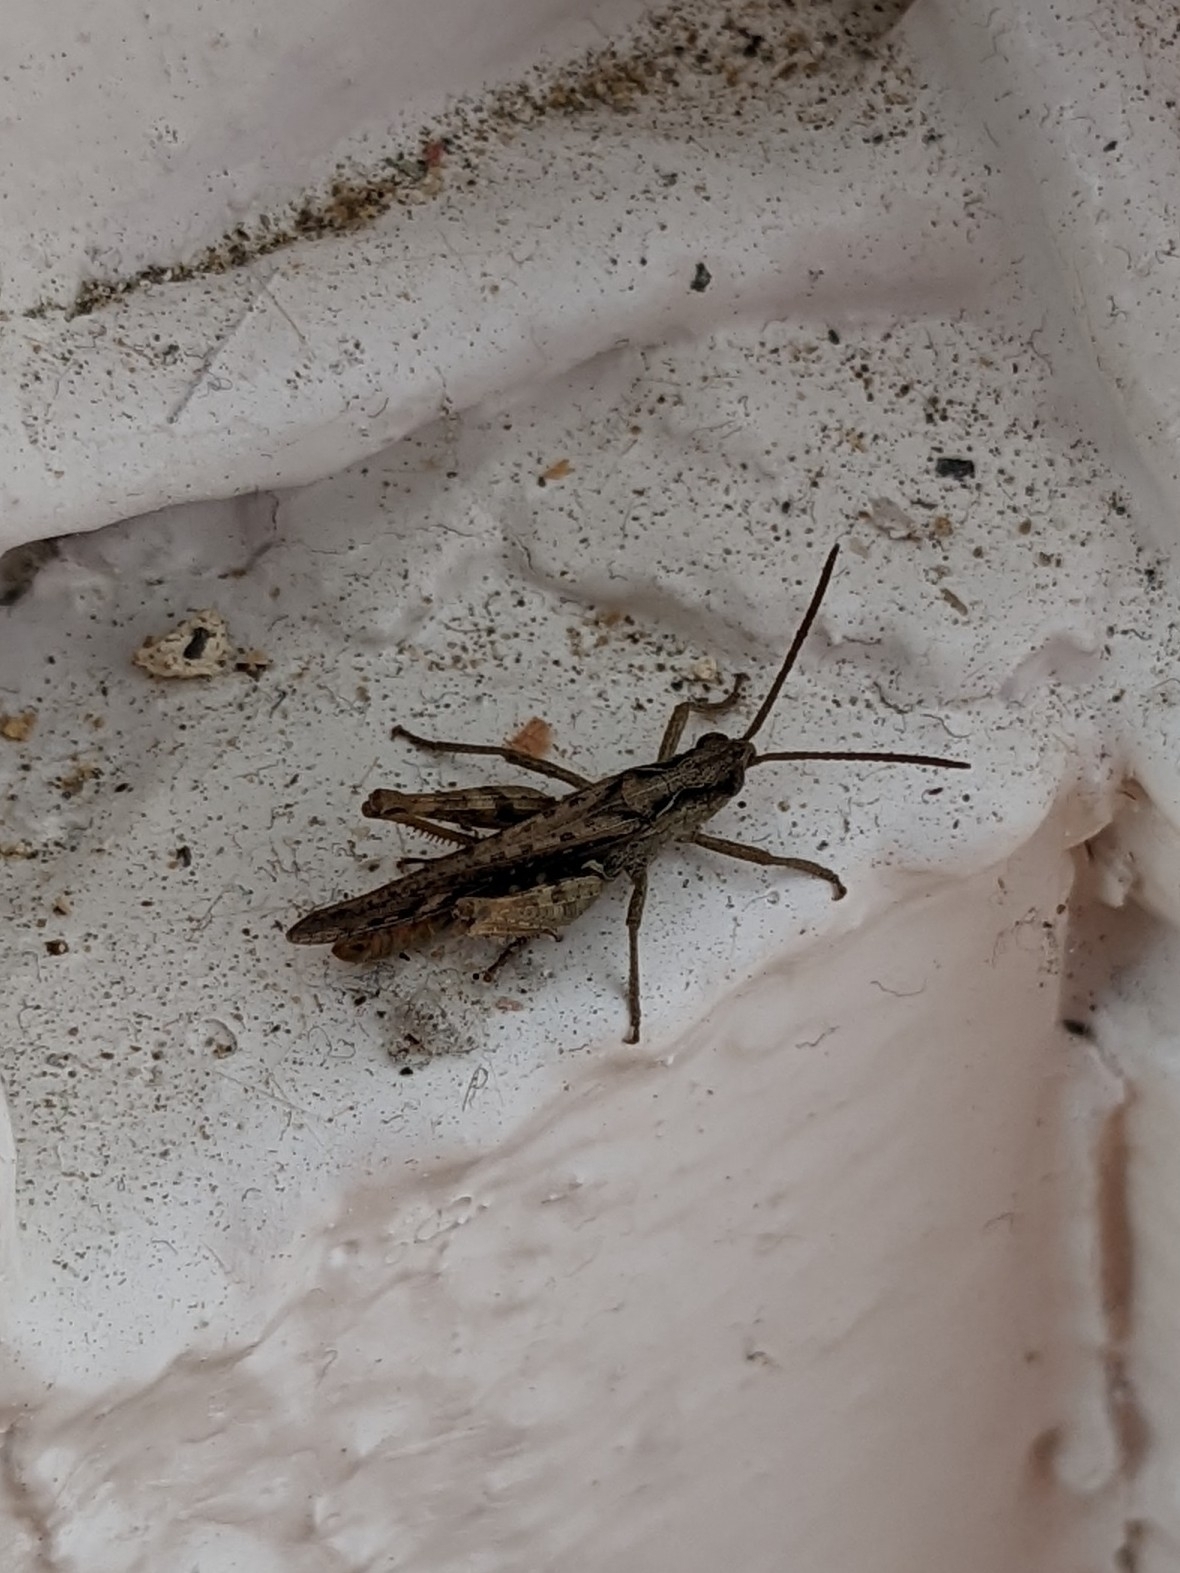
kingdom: Animalia
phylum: Arthropoda
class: Insecta
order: Orthoptera
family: Acrididae
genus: Chorthippus
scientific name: Chorthippus brunneus
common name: Field grasshopper
